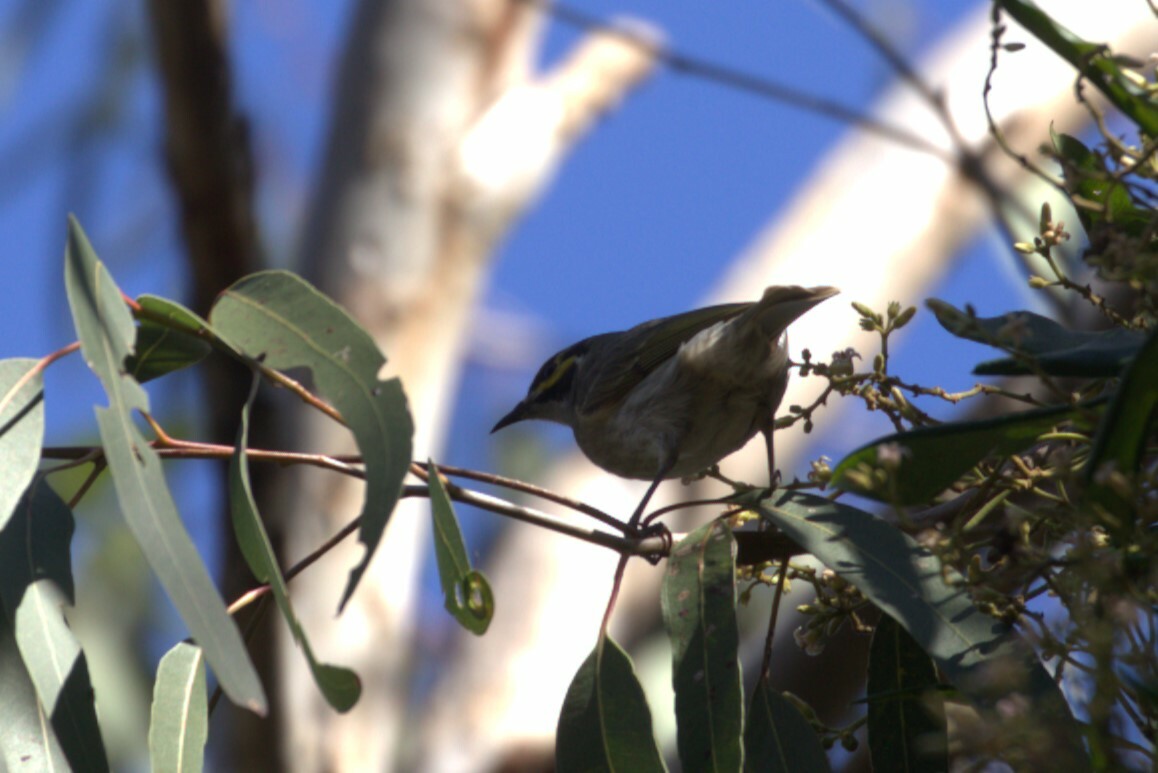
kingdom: Animalia
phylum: Chordata
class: Aves
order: Passeriformes
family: Meliphagidae
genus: Caligavis
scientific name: Caligavis chrysops
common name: Yellow-faced honeyeater
